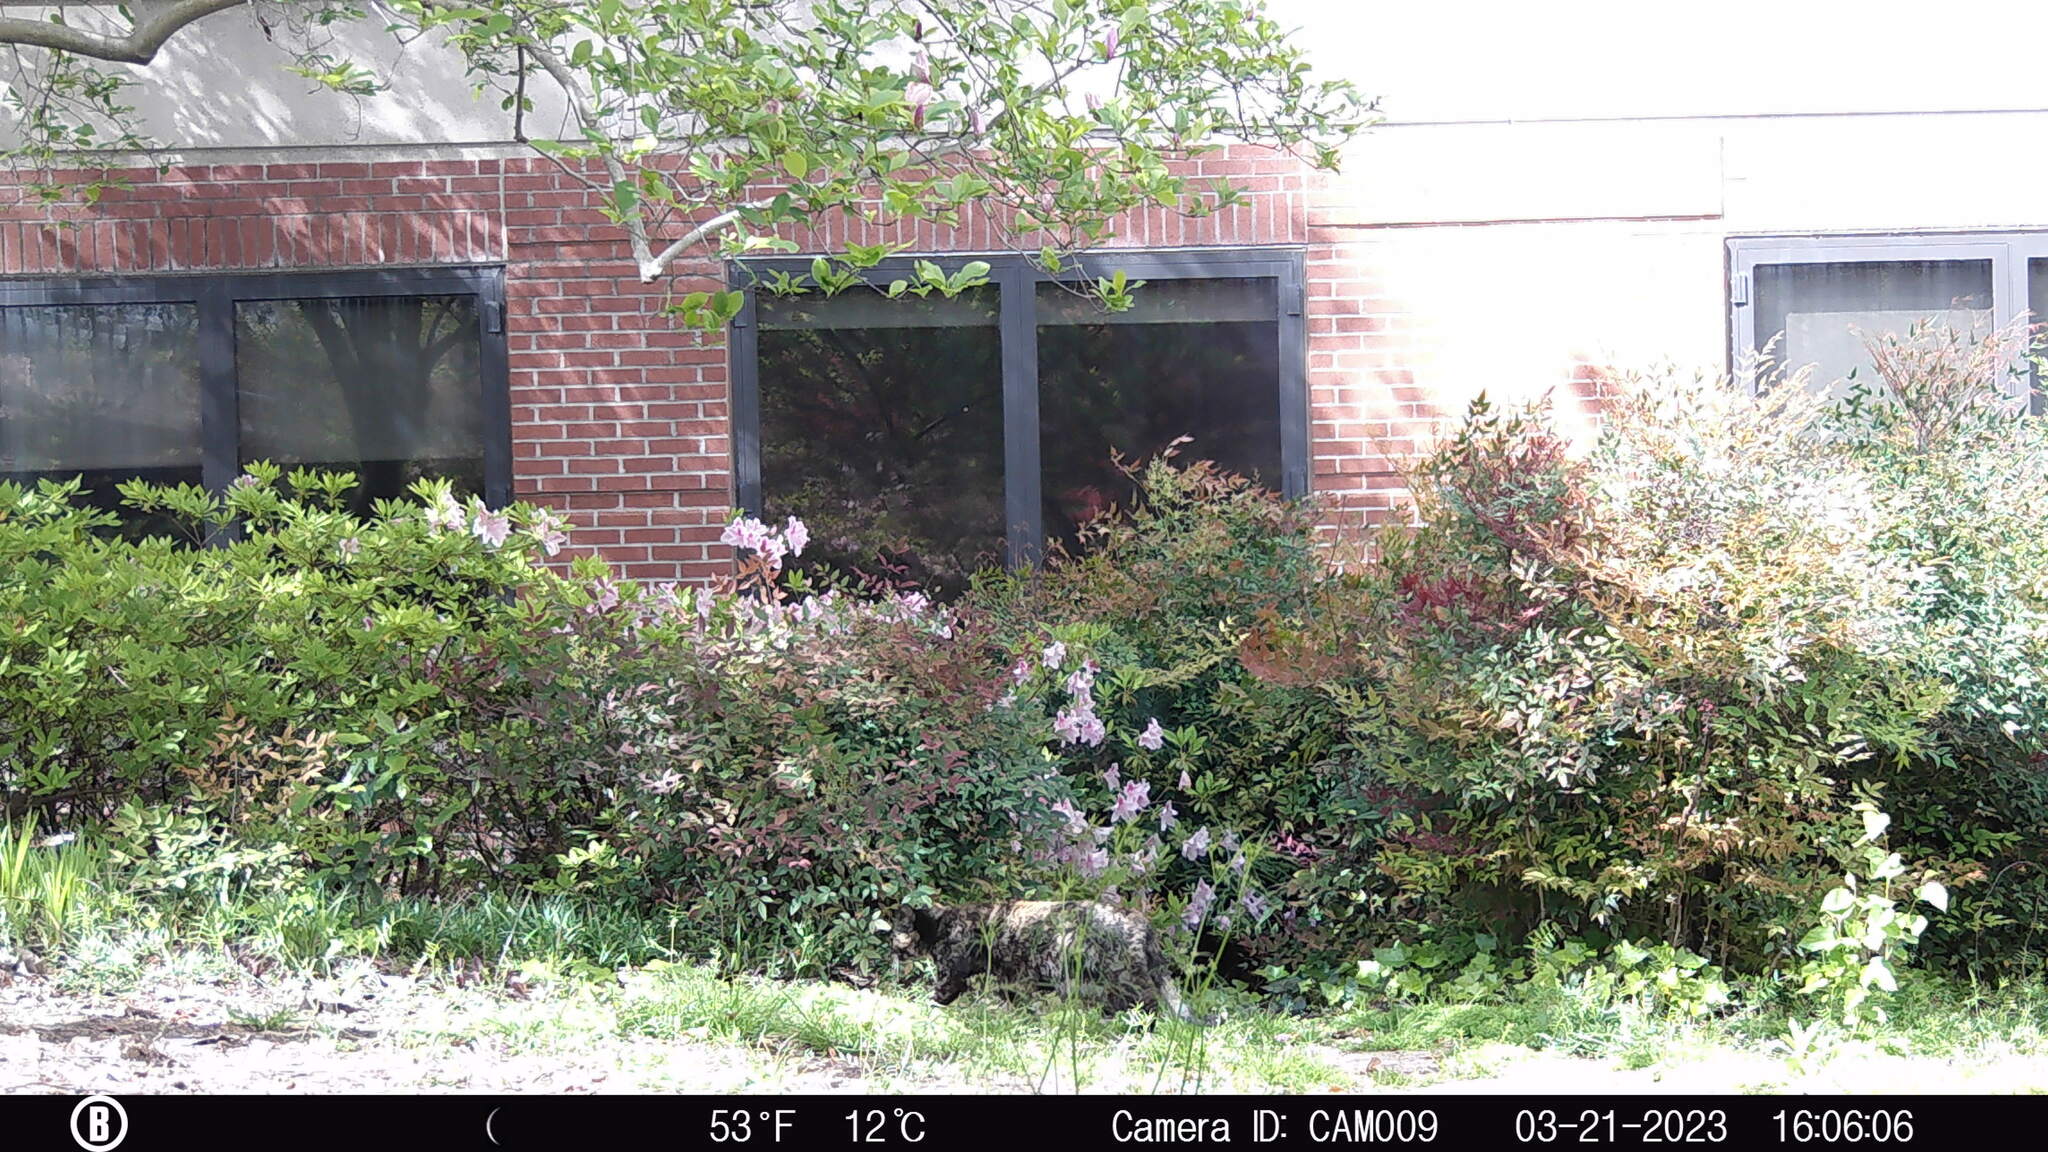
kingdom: Animalia
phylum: Chordata
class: Mammalia
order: Carnivora
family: Felidae
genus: Felis
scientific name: Felis catus
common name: Domestic cat
